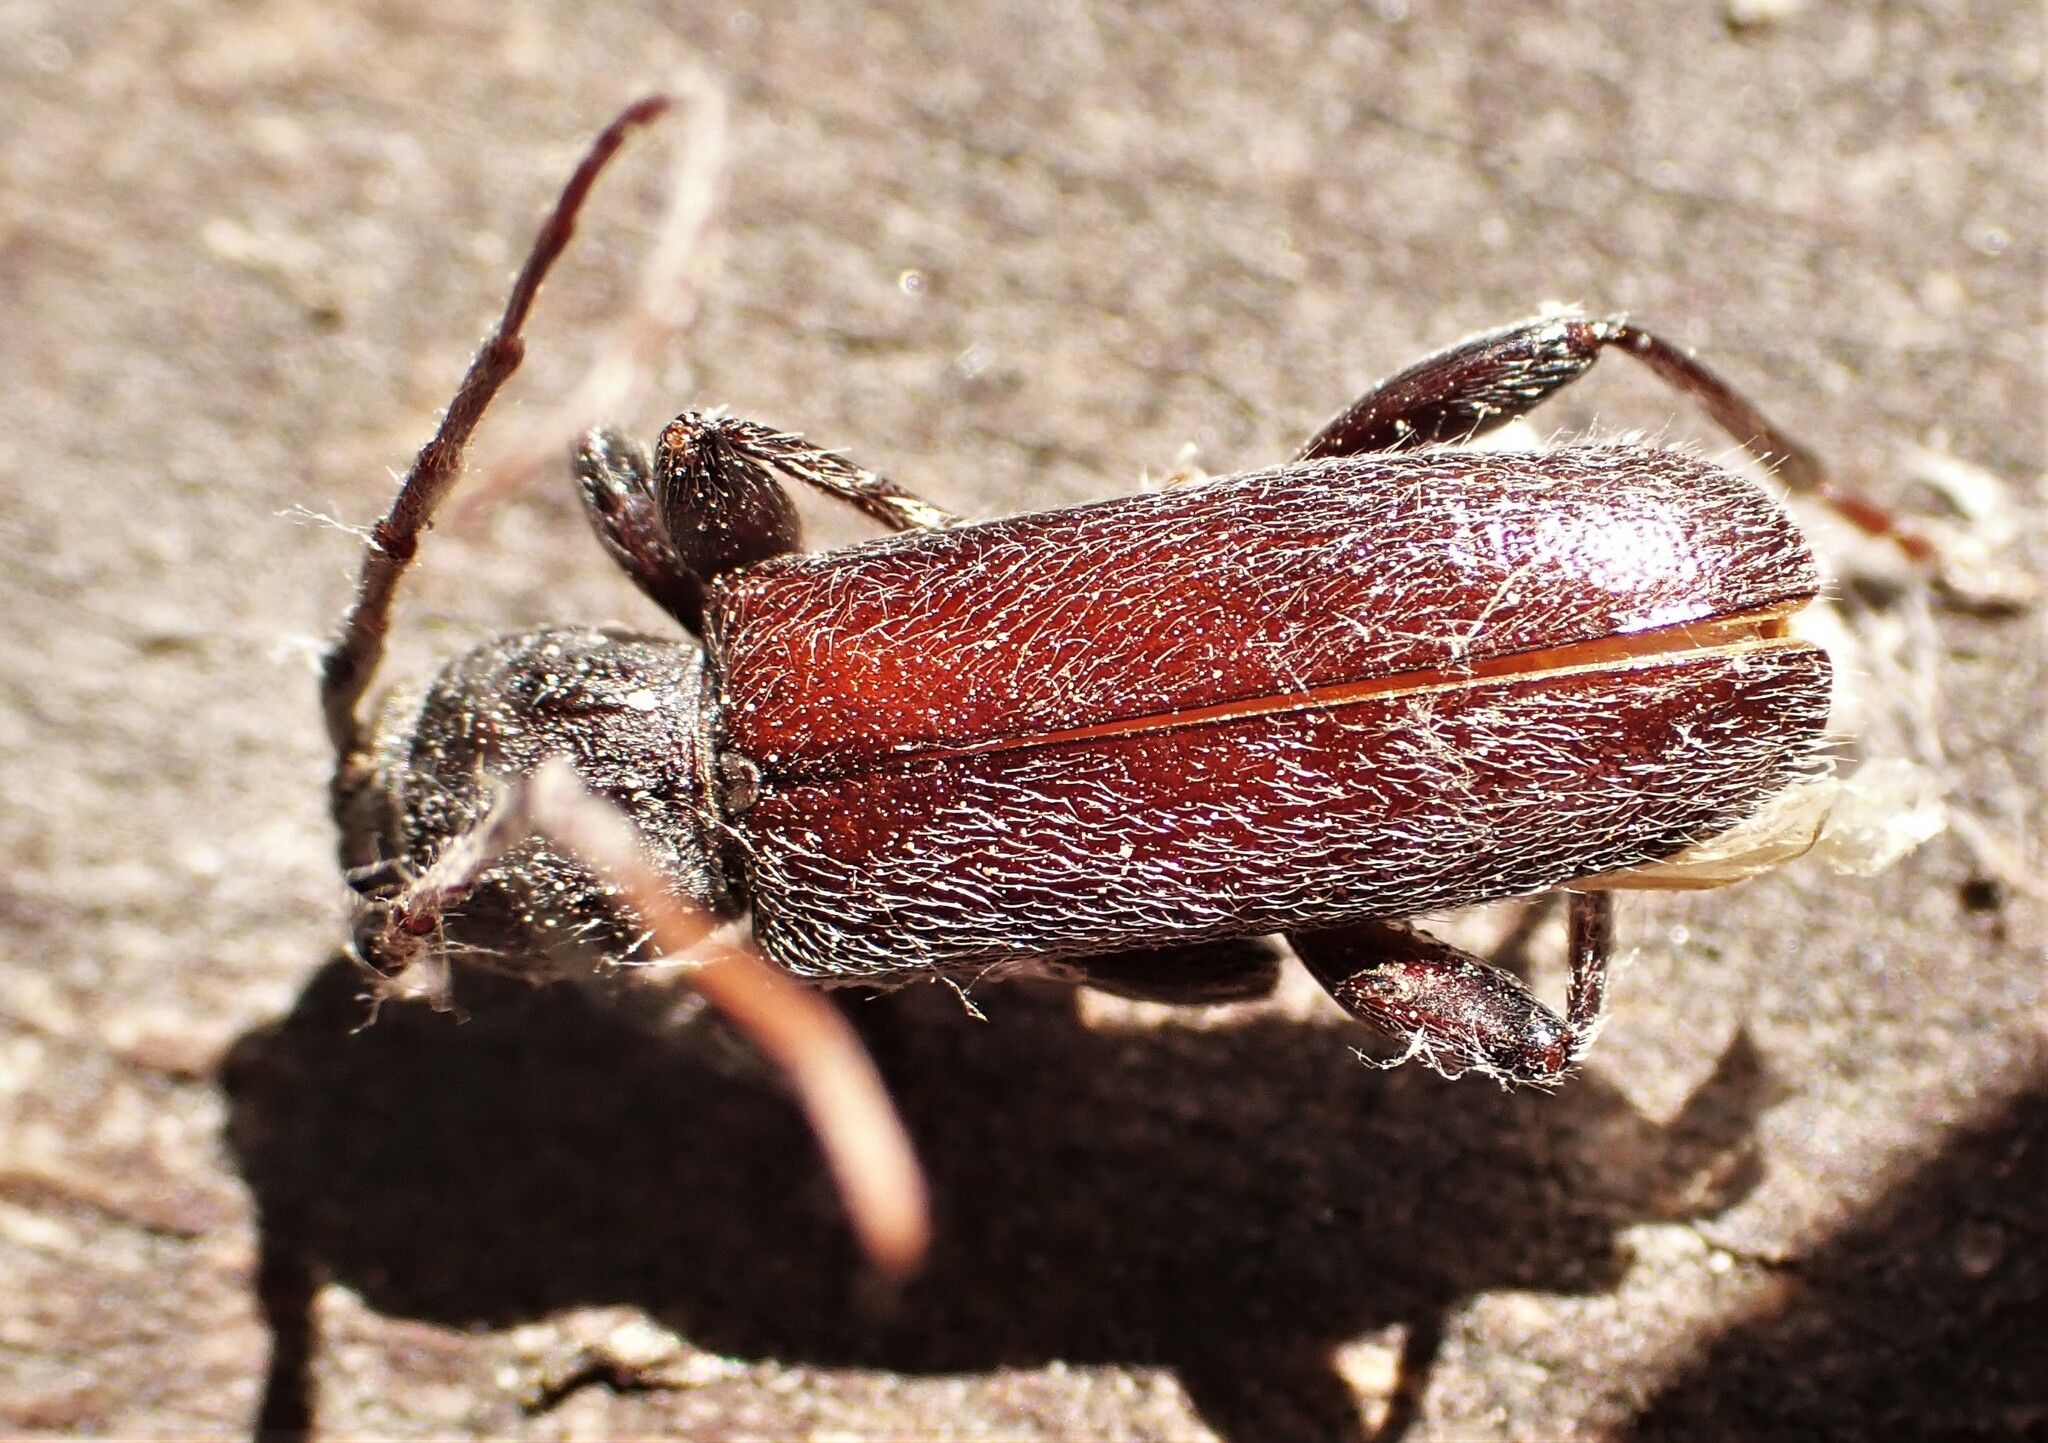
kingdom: Animalia
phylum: Arthropoda
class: Insecta
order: Coleoptera
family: Cerambycidae
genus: Liogramma
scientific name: Liogramma zelandica
